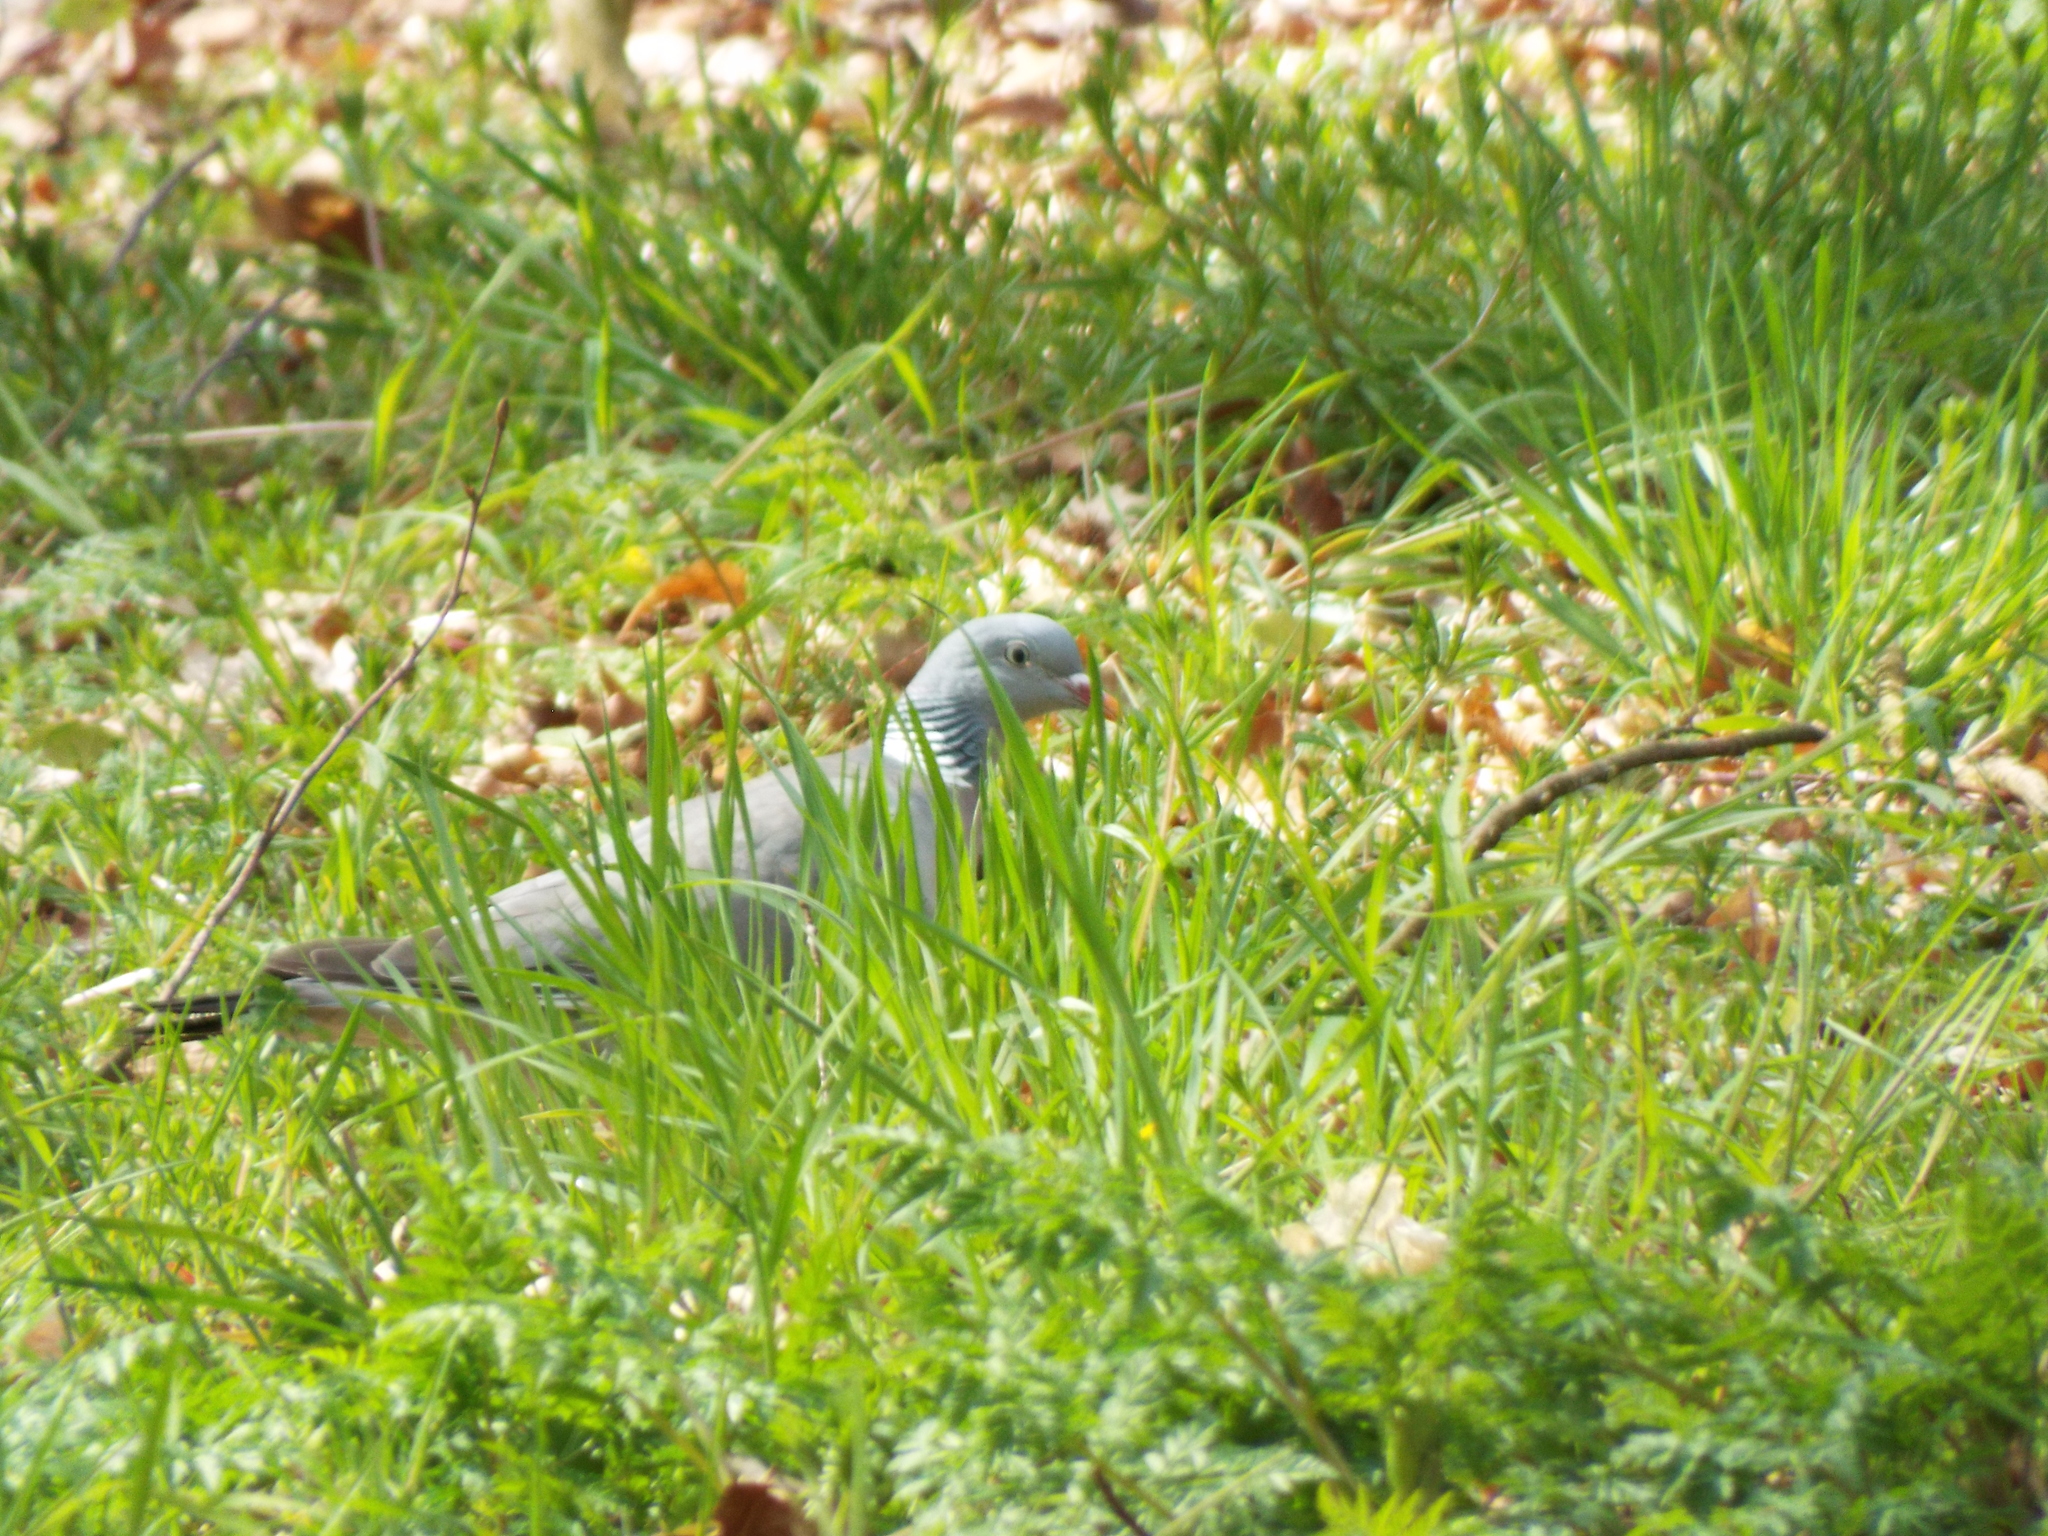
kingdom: Animalia
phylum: Chordata
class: Aves
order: Columbiformes
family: Columbidae
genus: Columba
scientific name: Columba palumbus
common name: Common wood pigeon
